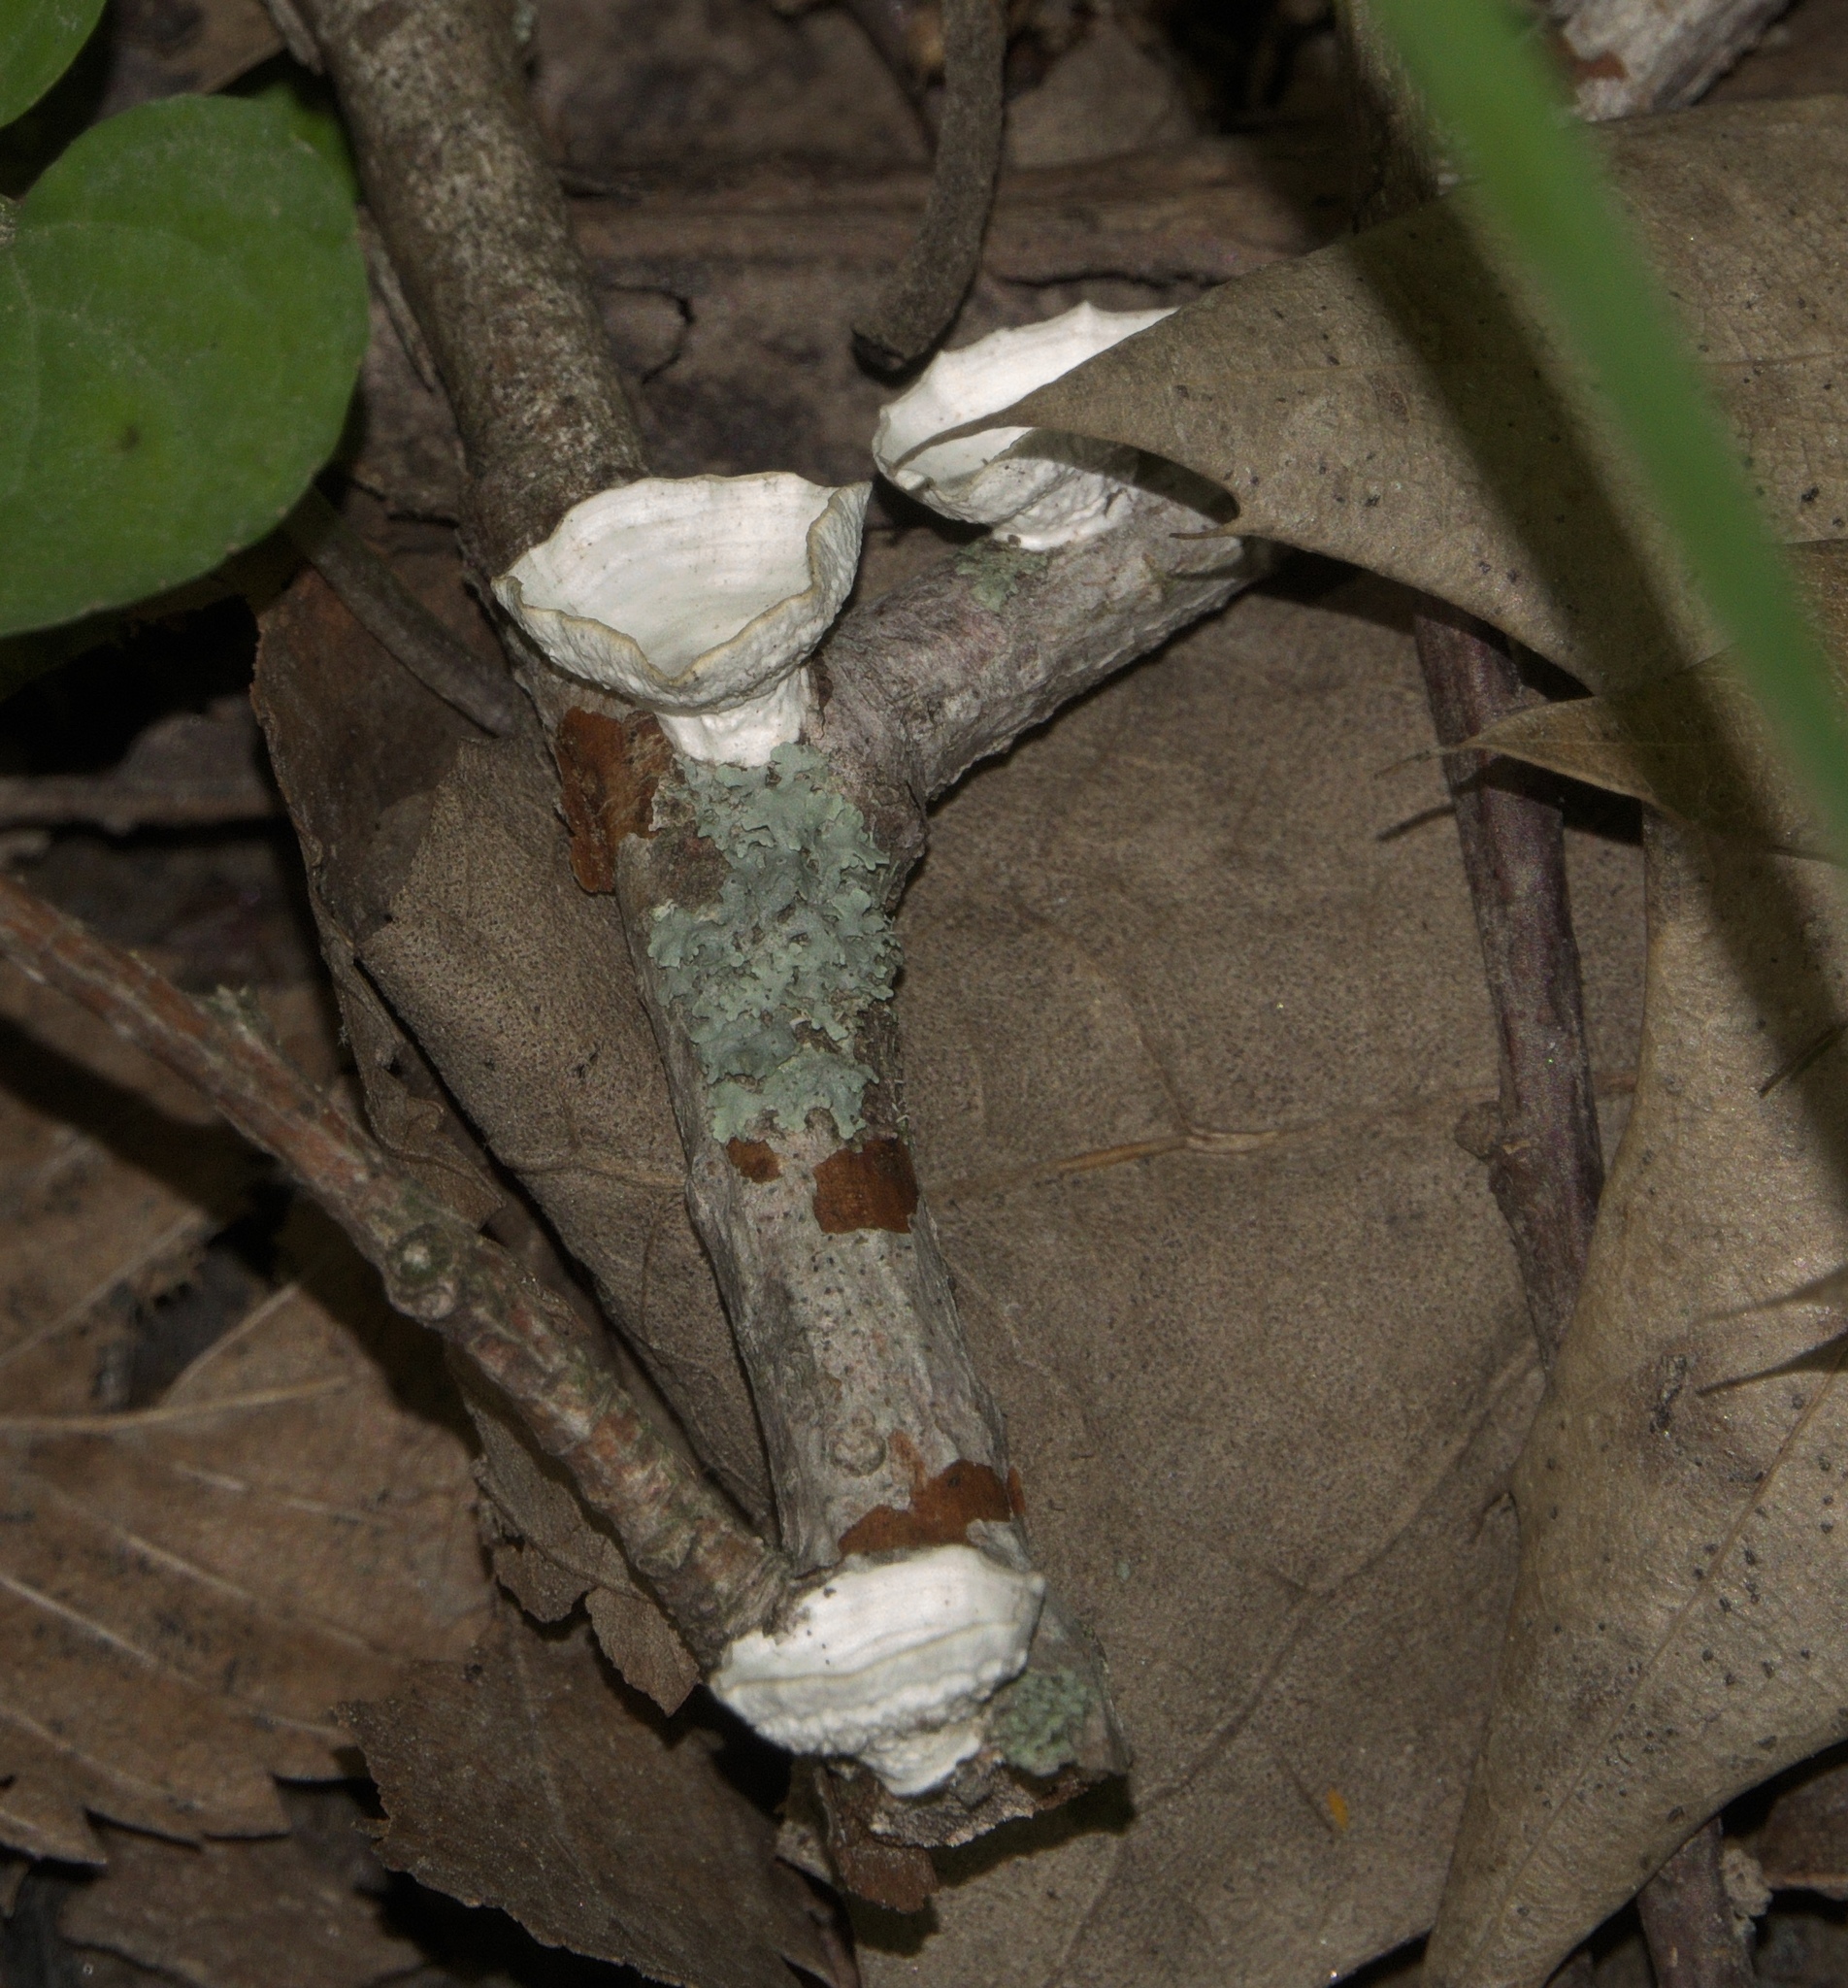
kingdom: Fungi
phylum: Basidiomycota
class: Agaricomycetes
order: Polyporales
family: Polyporaceae
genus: Poronidulus
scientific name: Poronidulus conchifer
